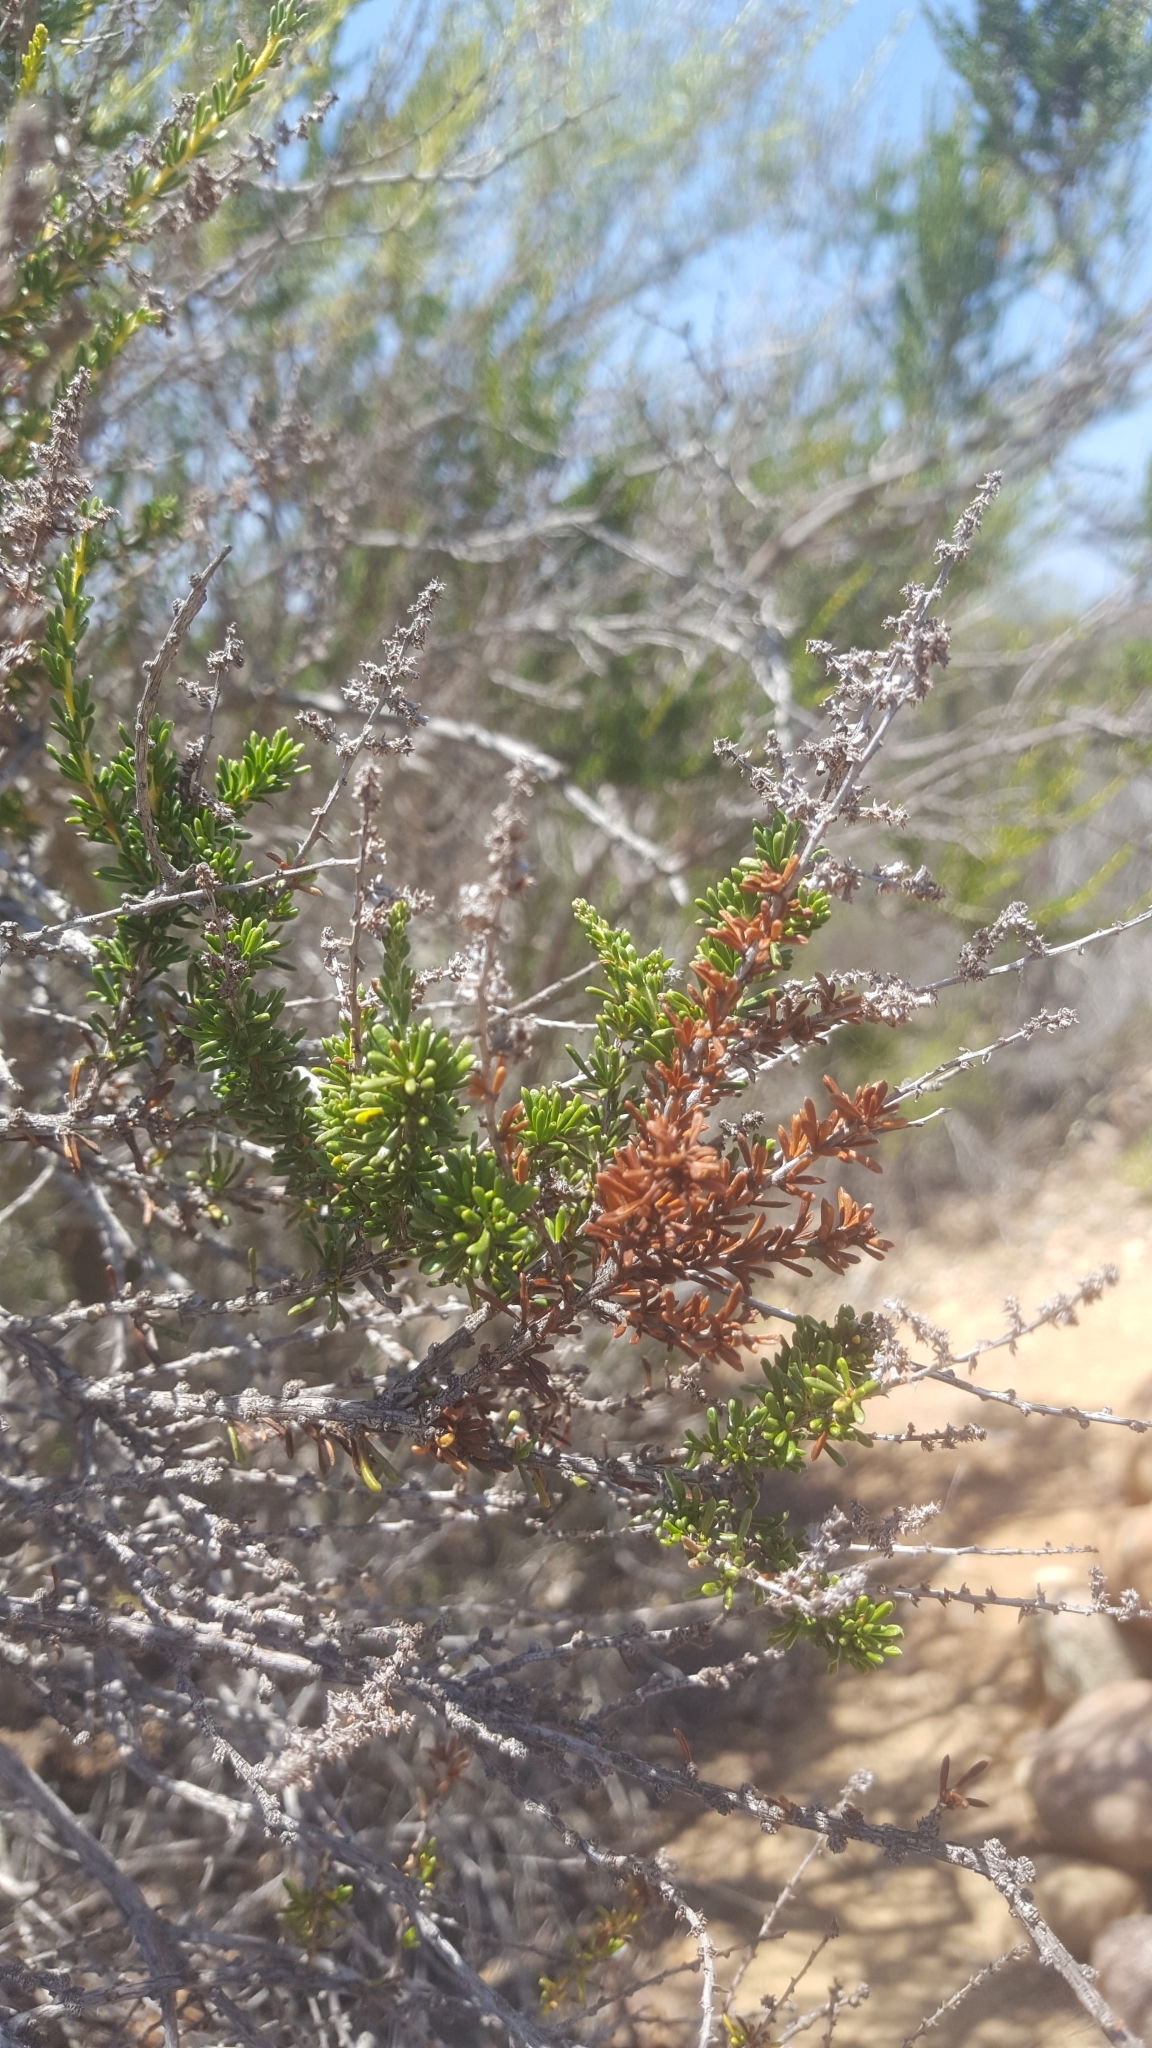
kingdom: Plantae
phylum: Tracheophyta
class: Magnoliopsida
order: Rosales
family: Rosaceae
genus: Adenostoma
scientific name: Adenostoma fasciculatum
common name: Chamise
